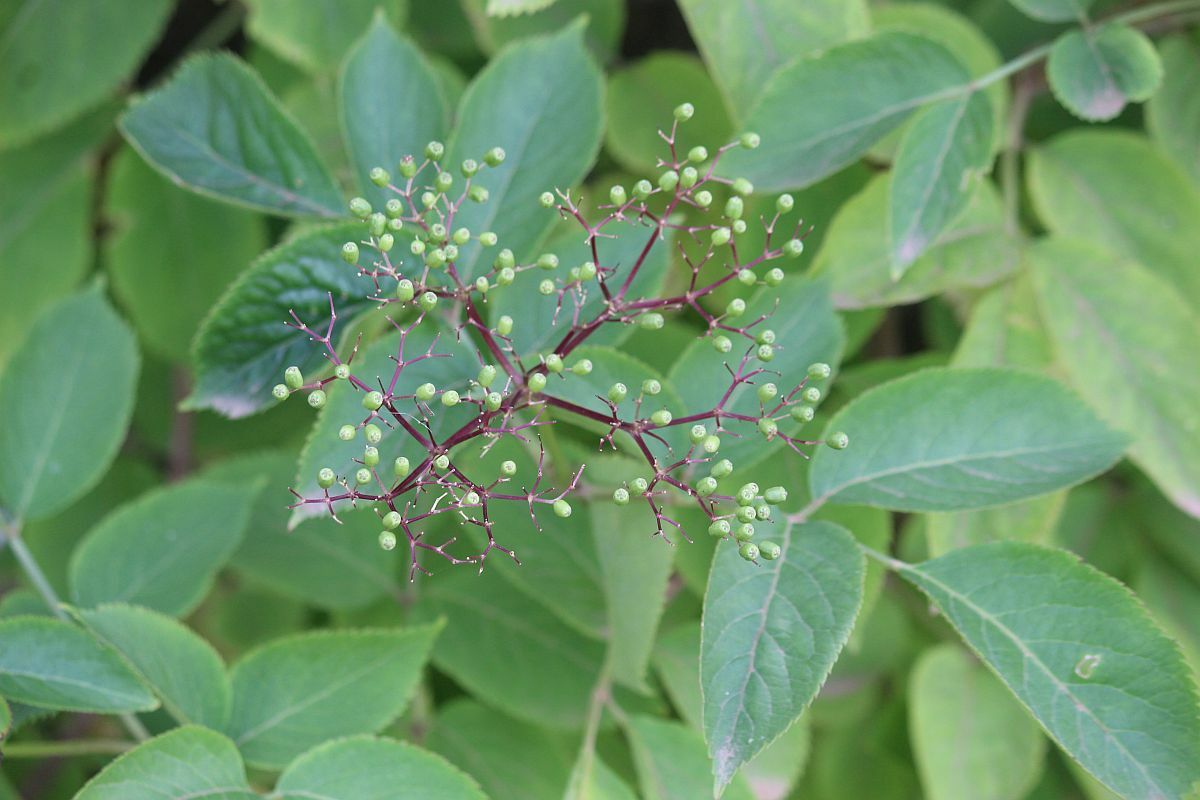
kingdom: Plantae
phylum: Tracheophyta
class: Magnoliopsida
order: Dipsacales
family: Viburnaceae
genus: Sambucus
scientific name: Sambucus nigra
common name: Elder
